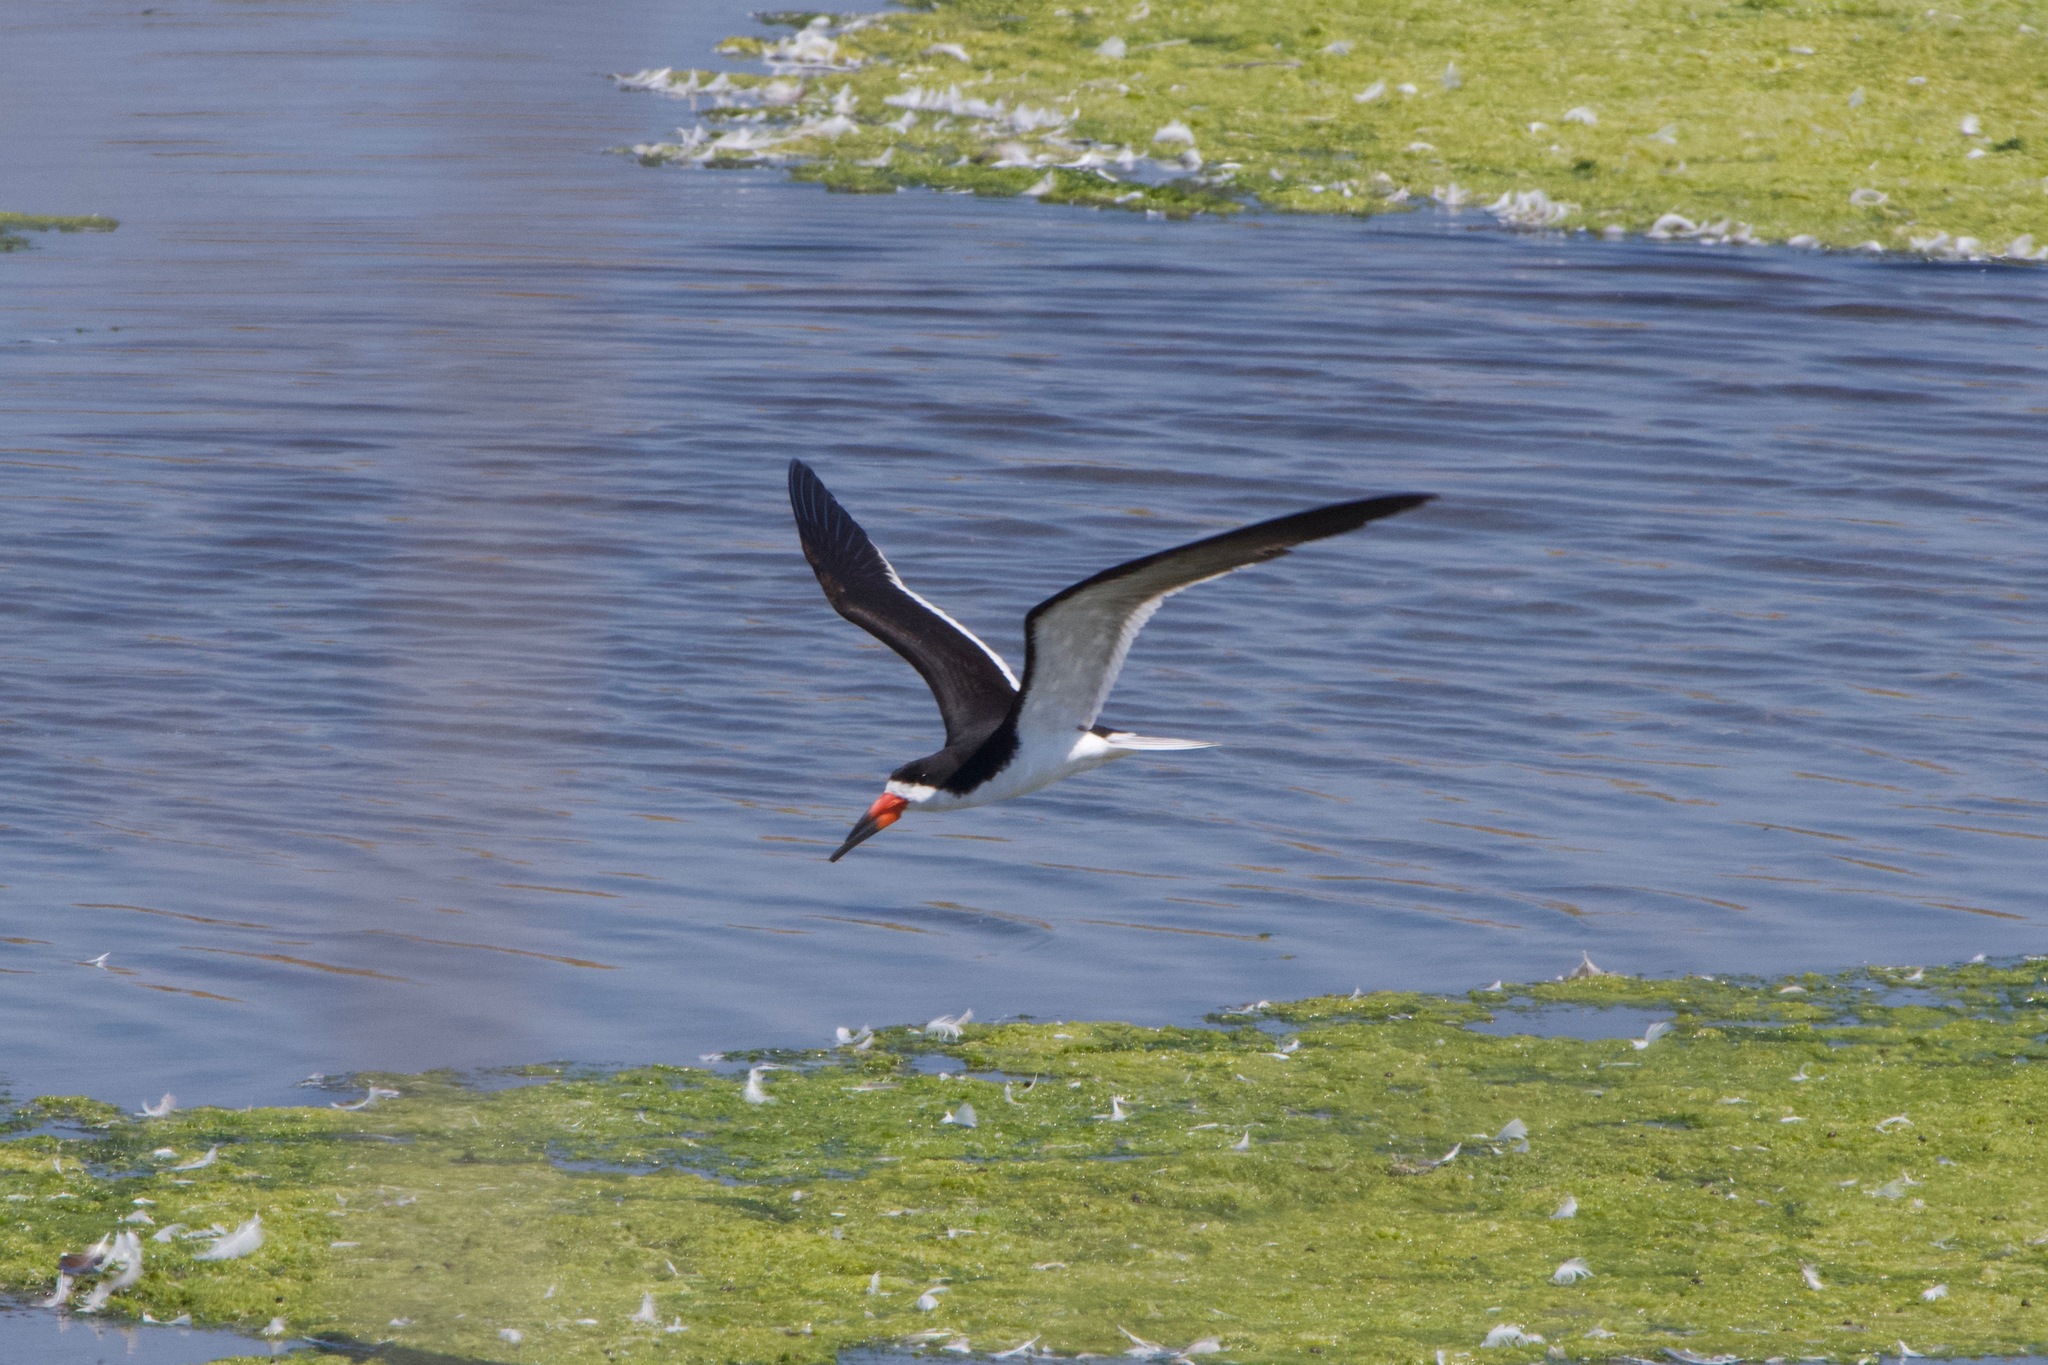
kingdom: Animalia
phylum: Chordata
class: Aves
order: Charadriiformes
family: Laridae
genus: Rynchops
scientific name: Rynchops niger
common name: Black skimmer
